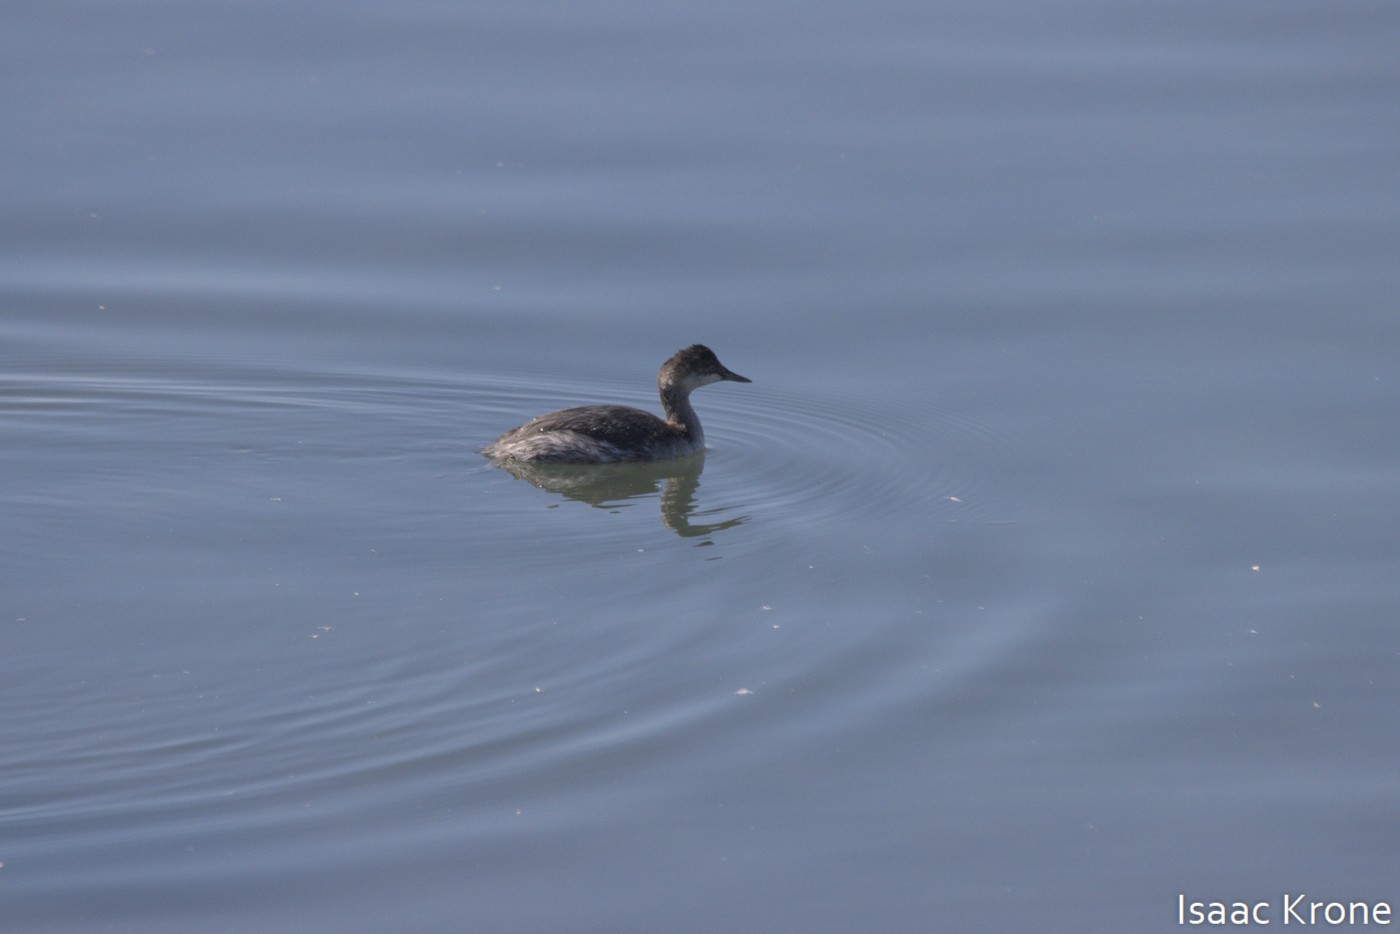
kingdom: Animalia
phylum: Chordata
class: Aves
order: Podicipediformes
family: Podicipedidae
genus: Podiceps
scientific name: Podiceps nigricollis
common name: Black-necked grebe
